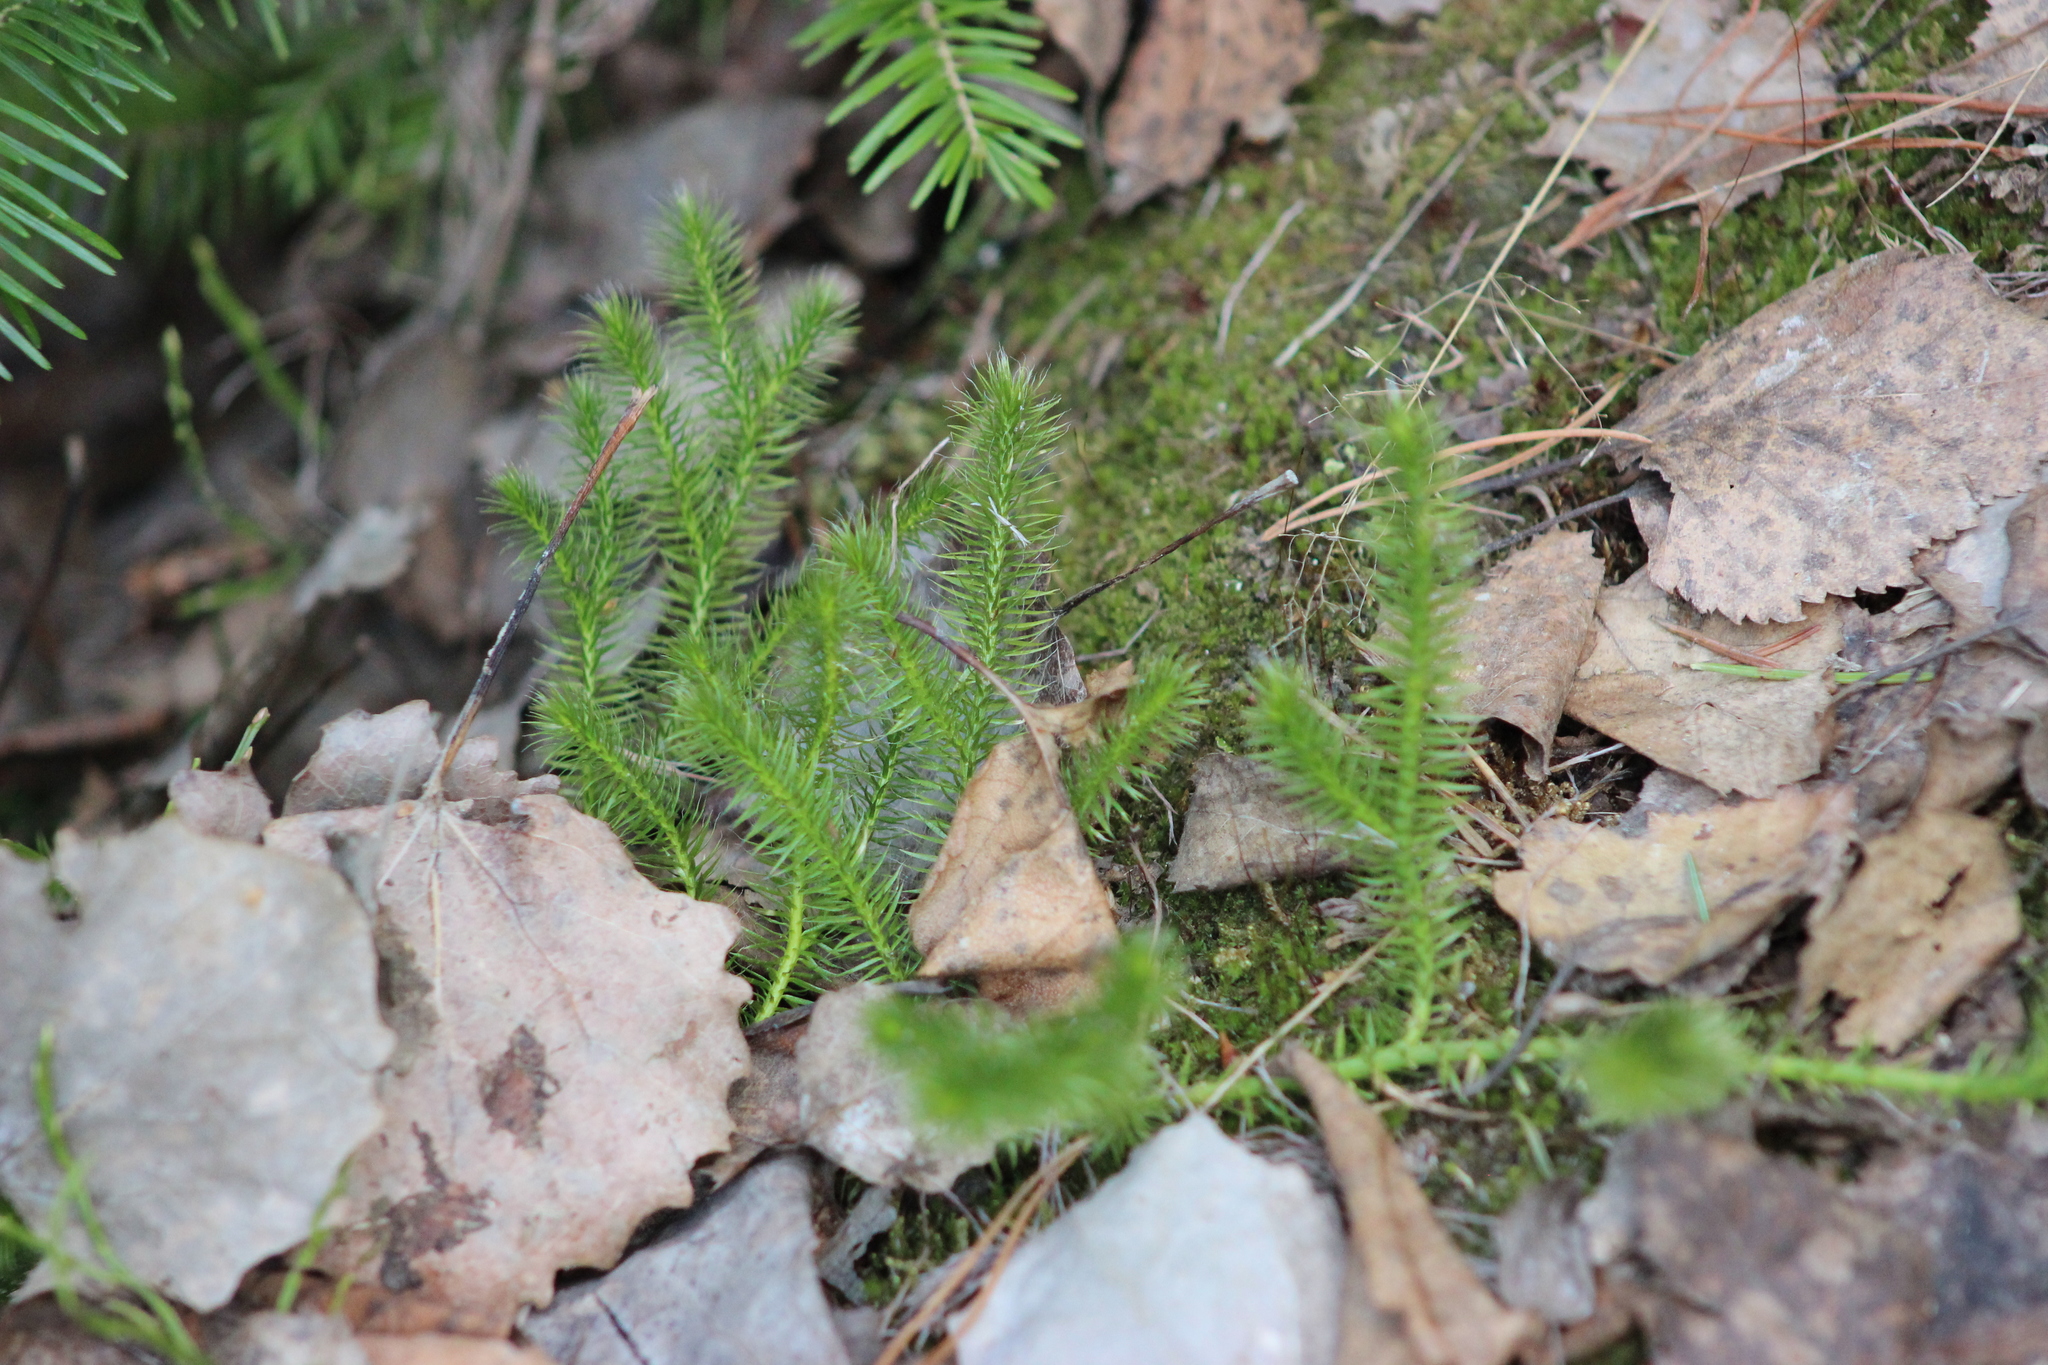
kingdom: Plantae
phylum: Tracheophyta
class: Lycopodiopsida
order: Lycopodiales
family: Lycopodiaceae
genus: Lycopodium
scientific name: Lycopodium clavatum
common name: Stag's-horn clubmoss
